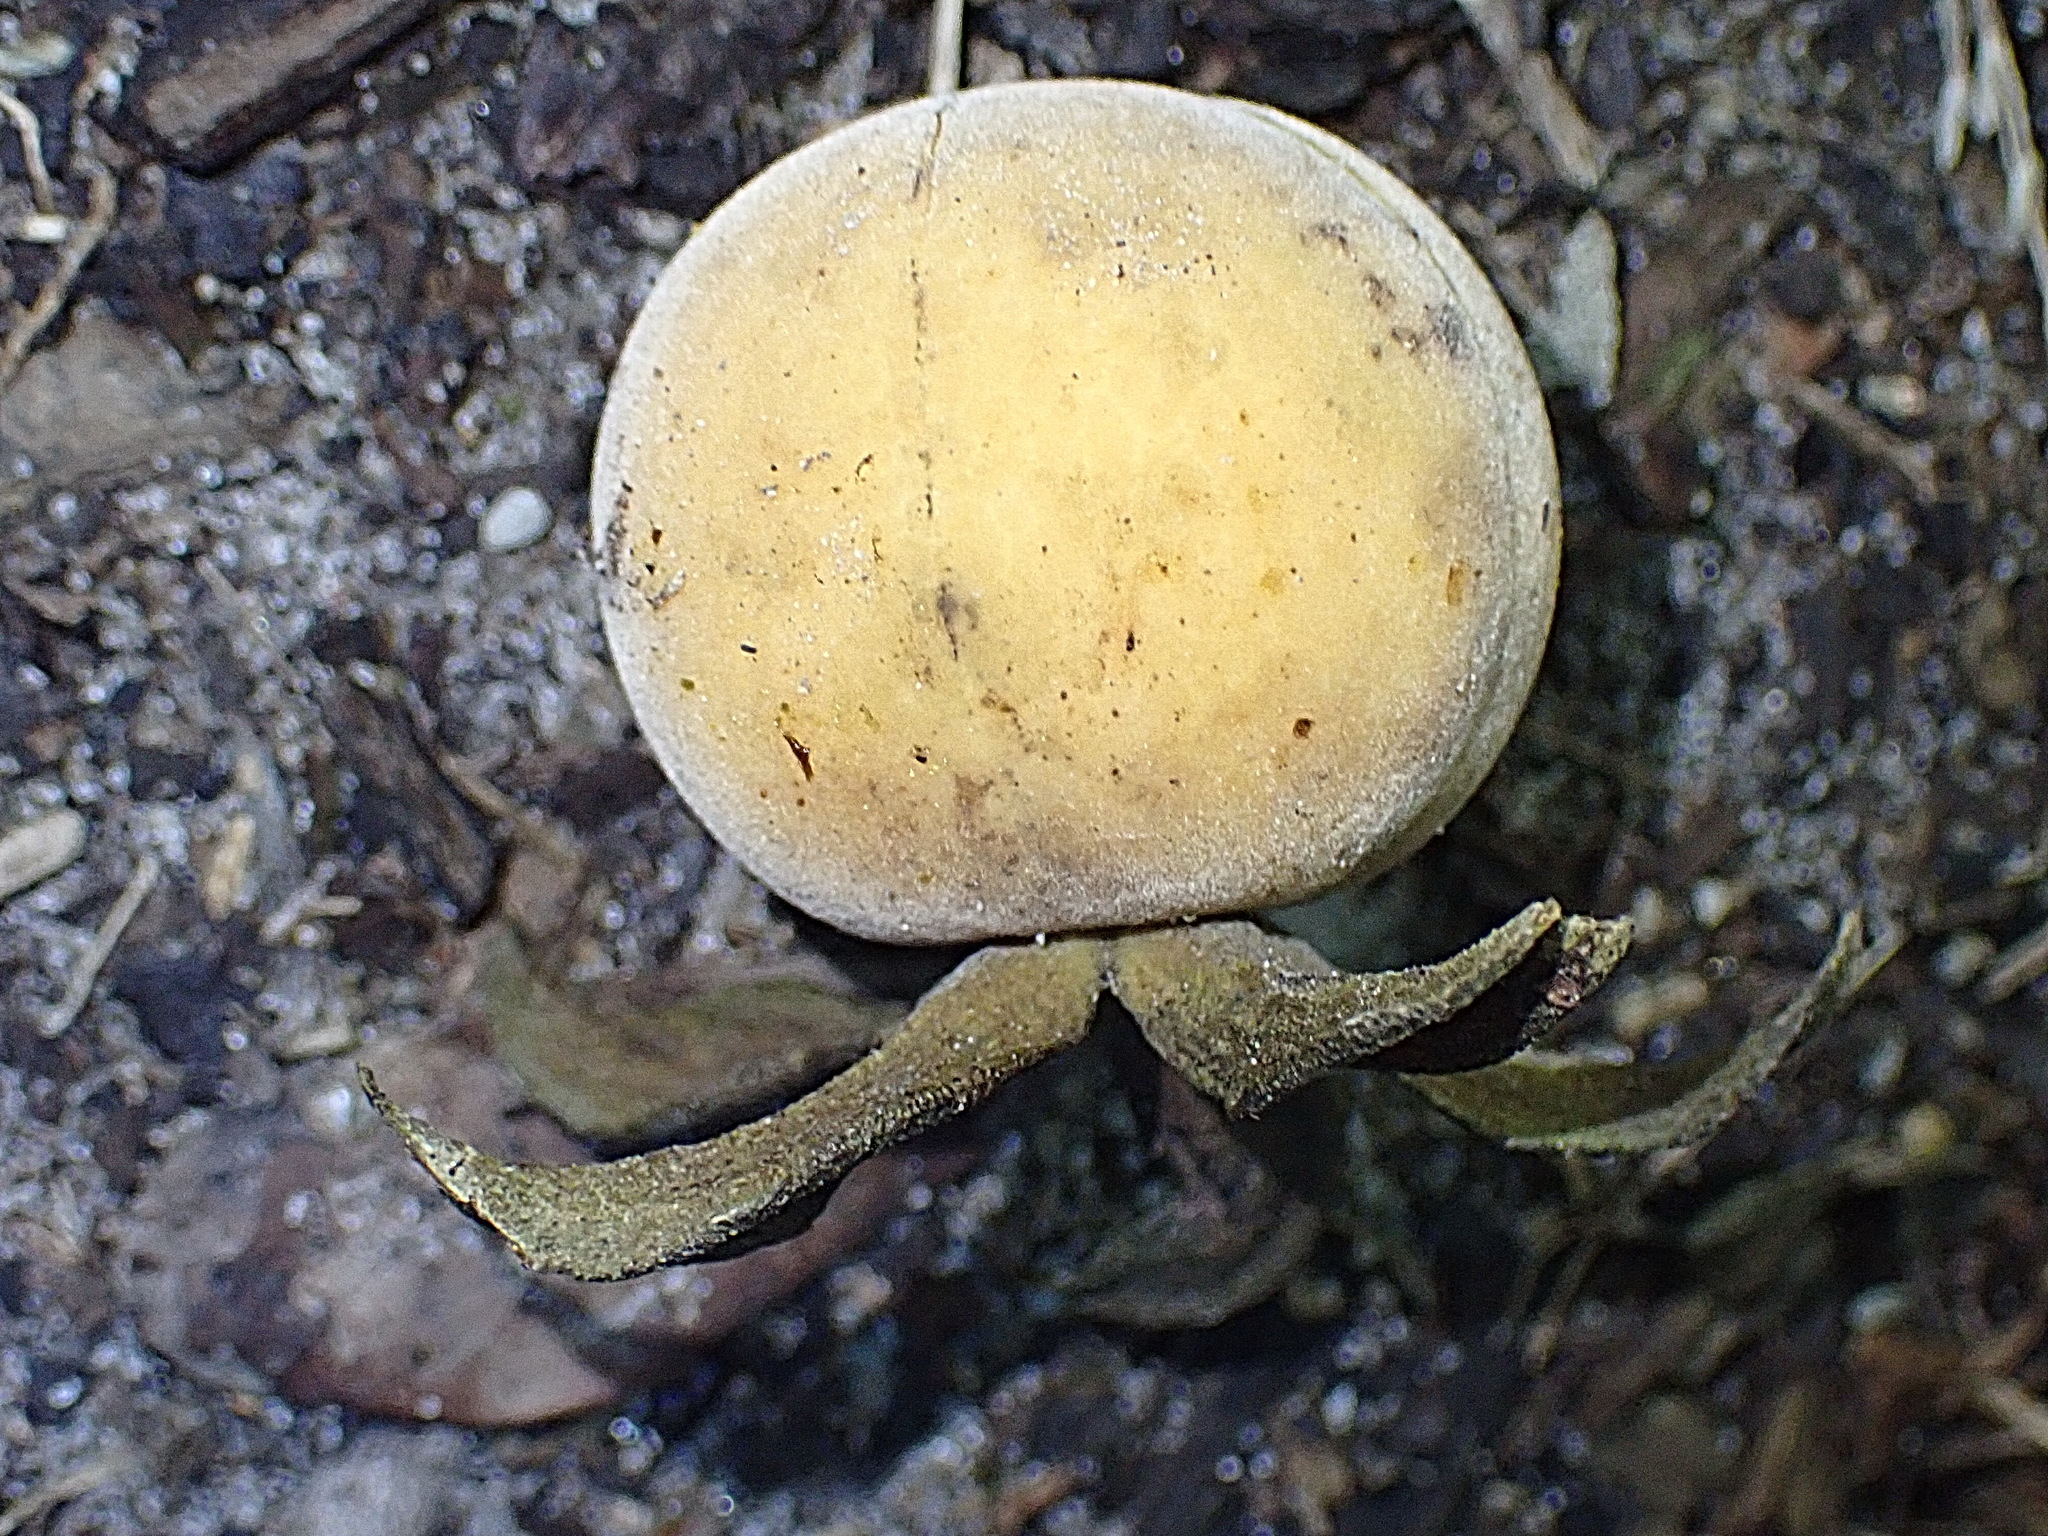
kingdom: Plantae
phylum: Tracheophyta
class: Magnoliopsida
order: Ericales
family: Ebenaceae
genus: Diospyros
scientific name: Diospyros dichrophylla
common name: Common star-apple
